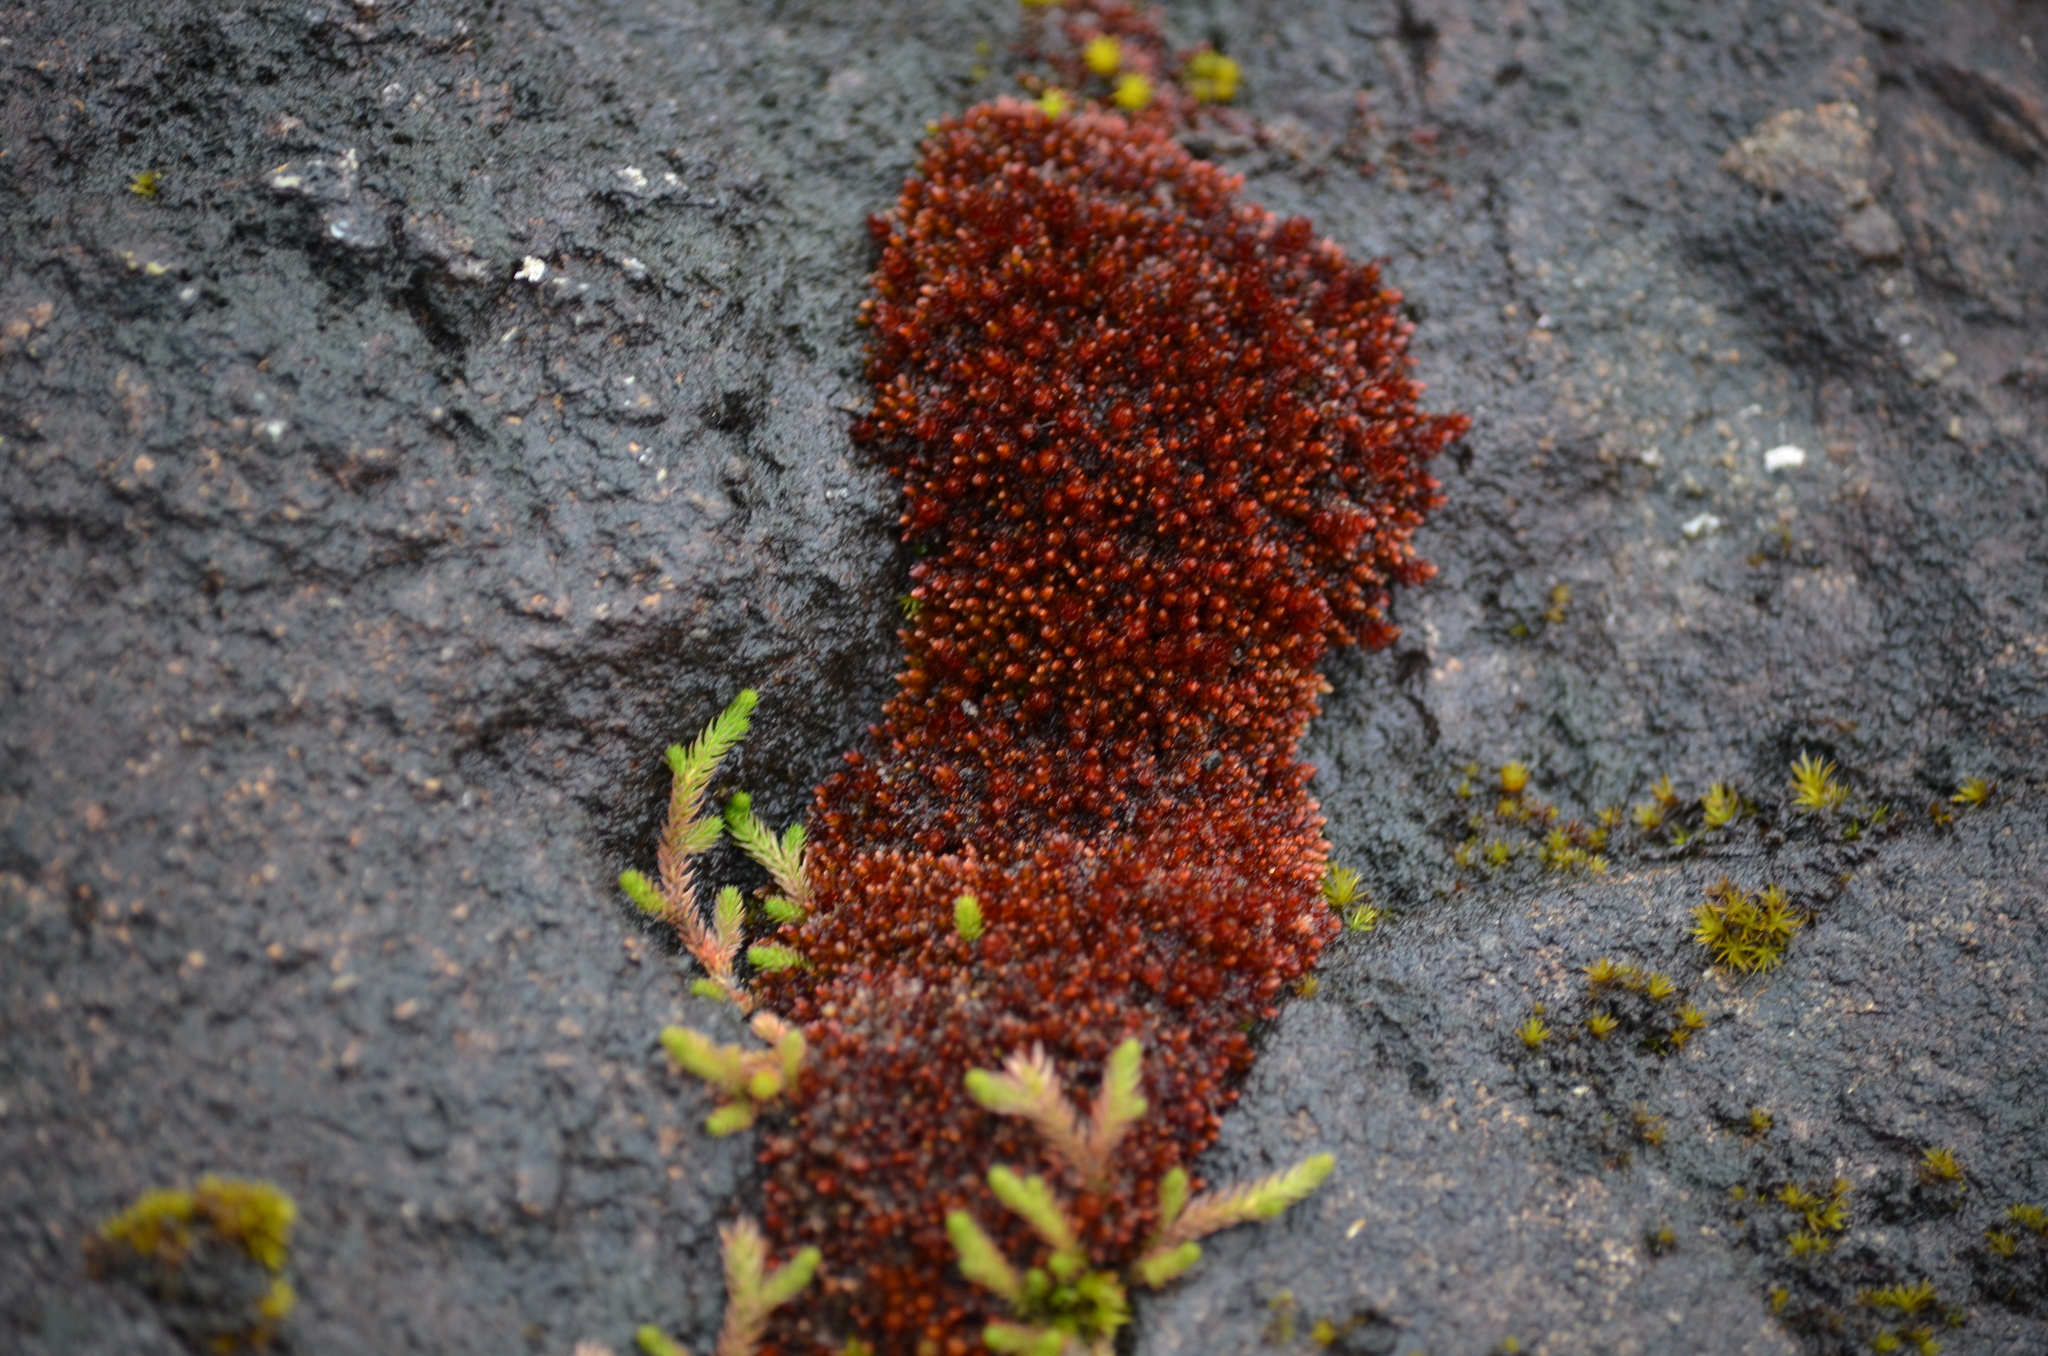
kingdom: Plantae
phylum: Bryophyta
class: Bryopsida
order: Bryales
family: Bryaceae
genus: Imbribryum
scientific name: Imbribryum miniatum
